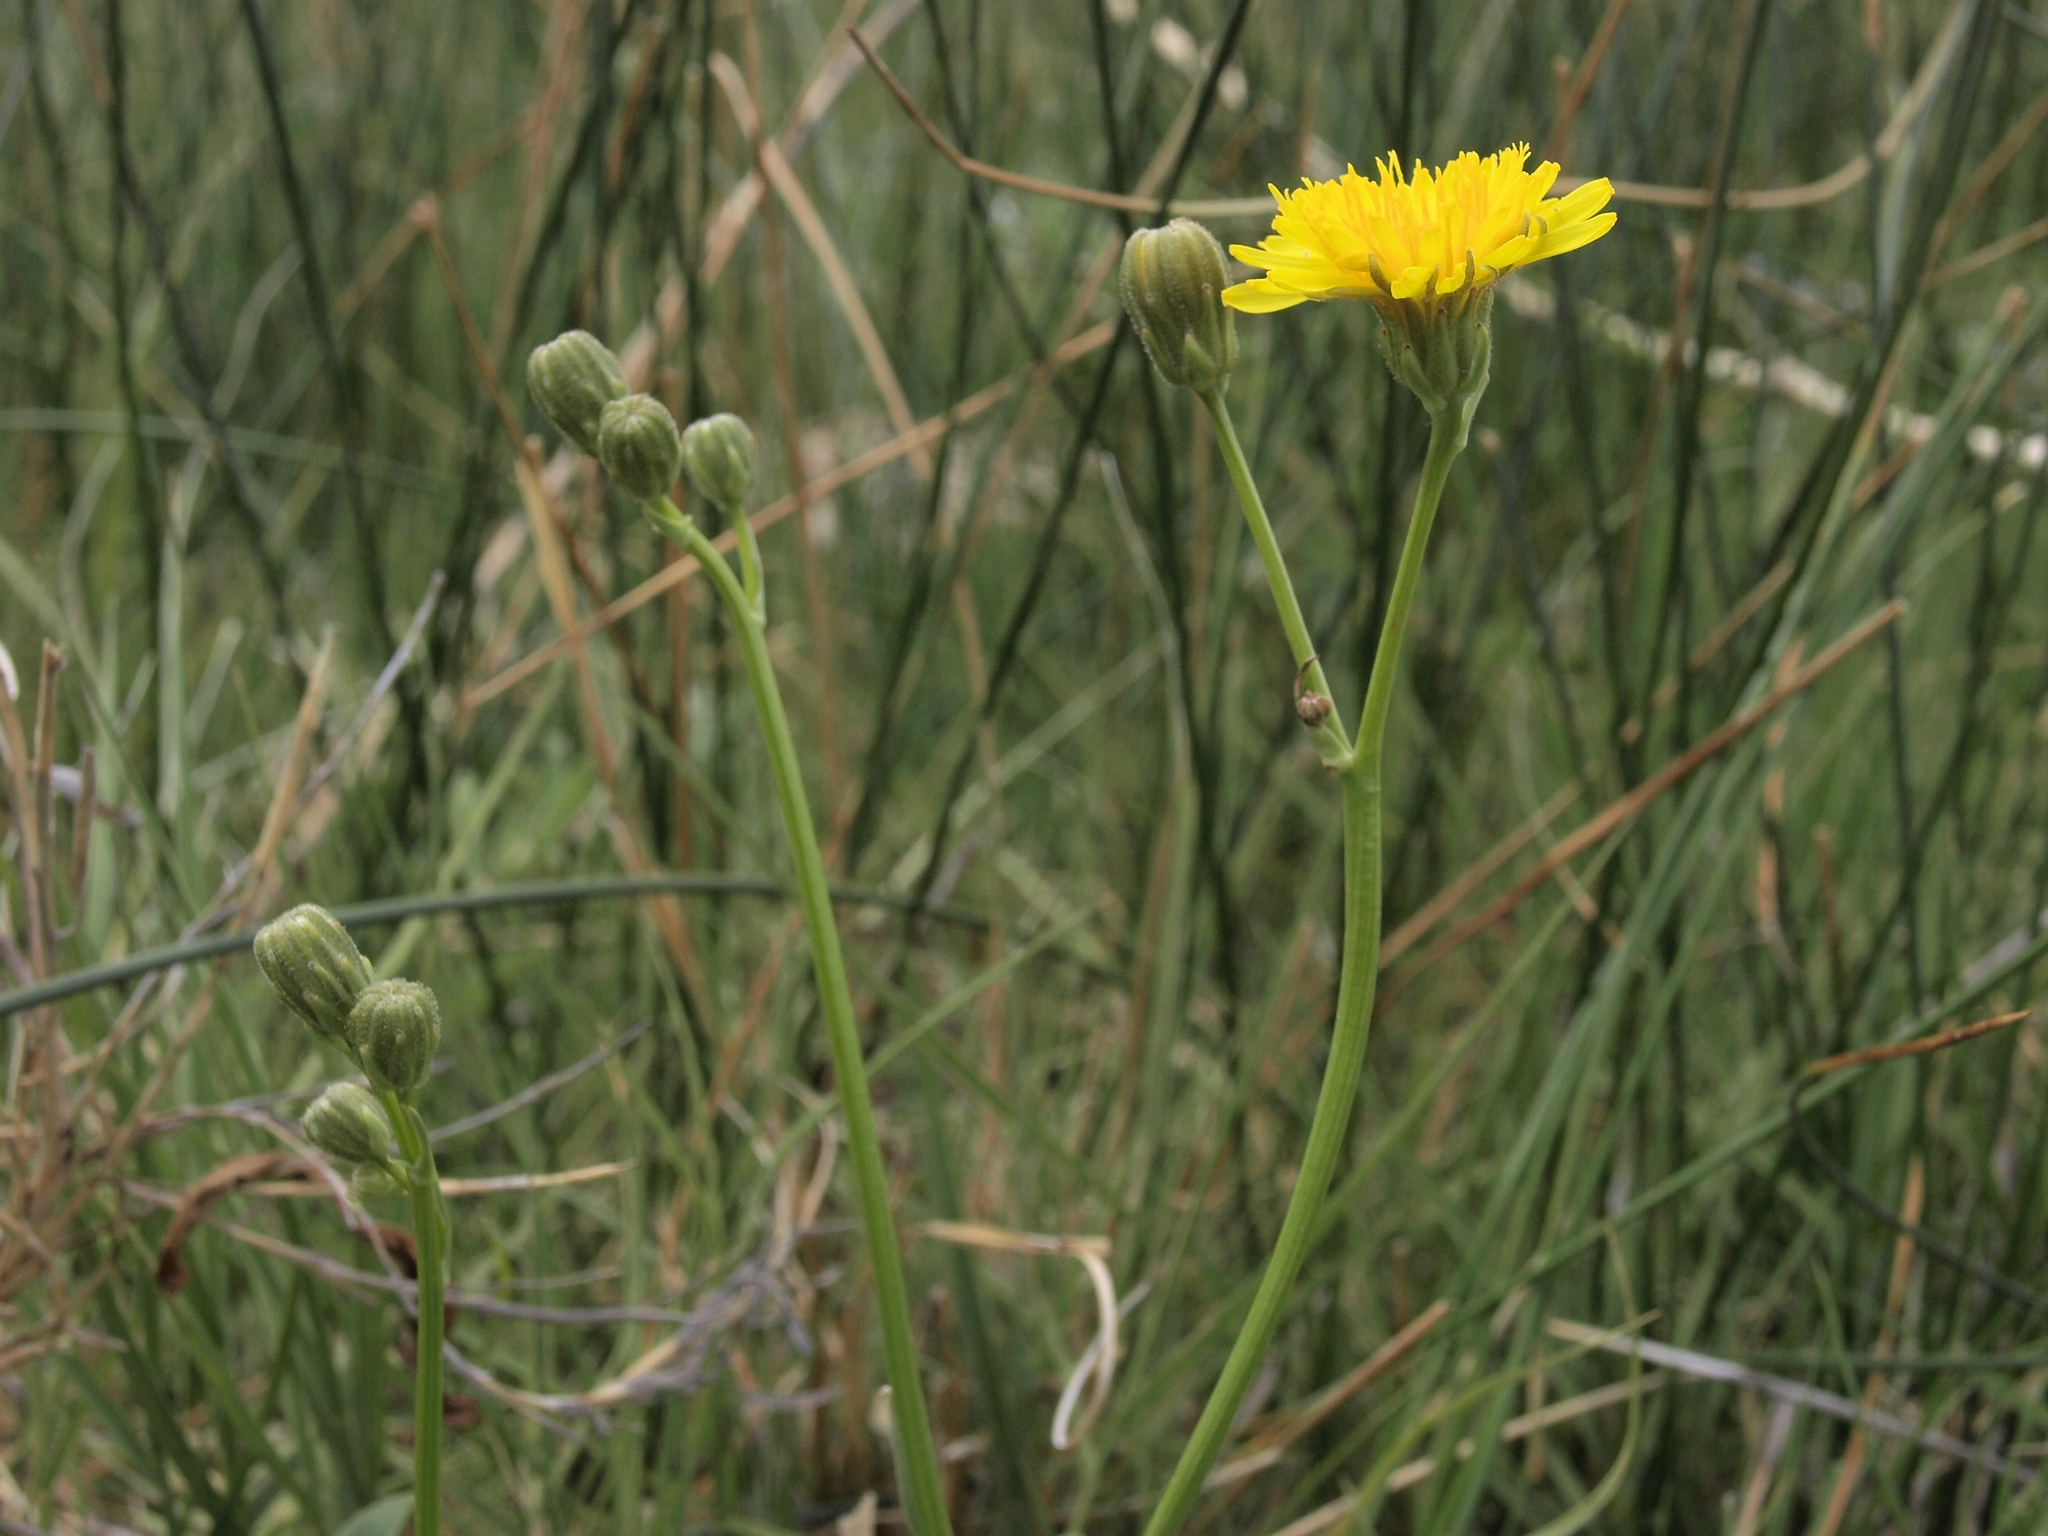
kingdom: Plantae
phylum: Tracheophyta
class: Magnoliopsida
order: Asterales
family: Asteraceae
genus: Crepis
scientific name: Crepis runcinata
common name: Dandelion hawksbeard
